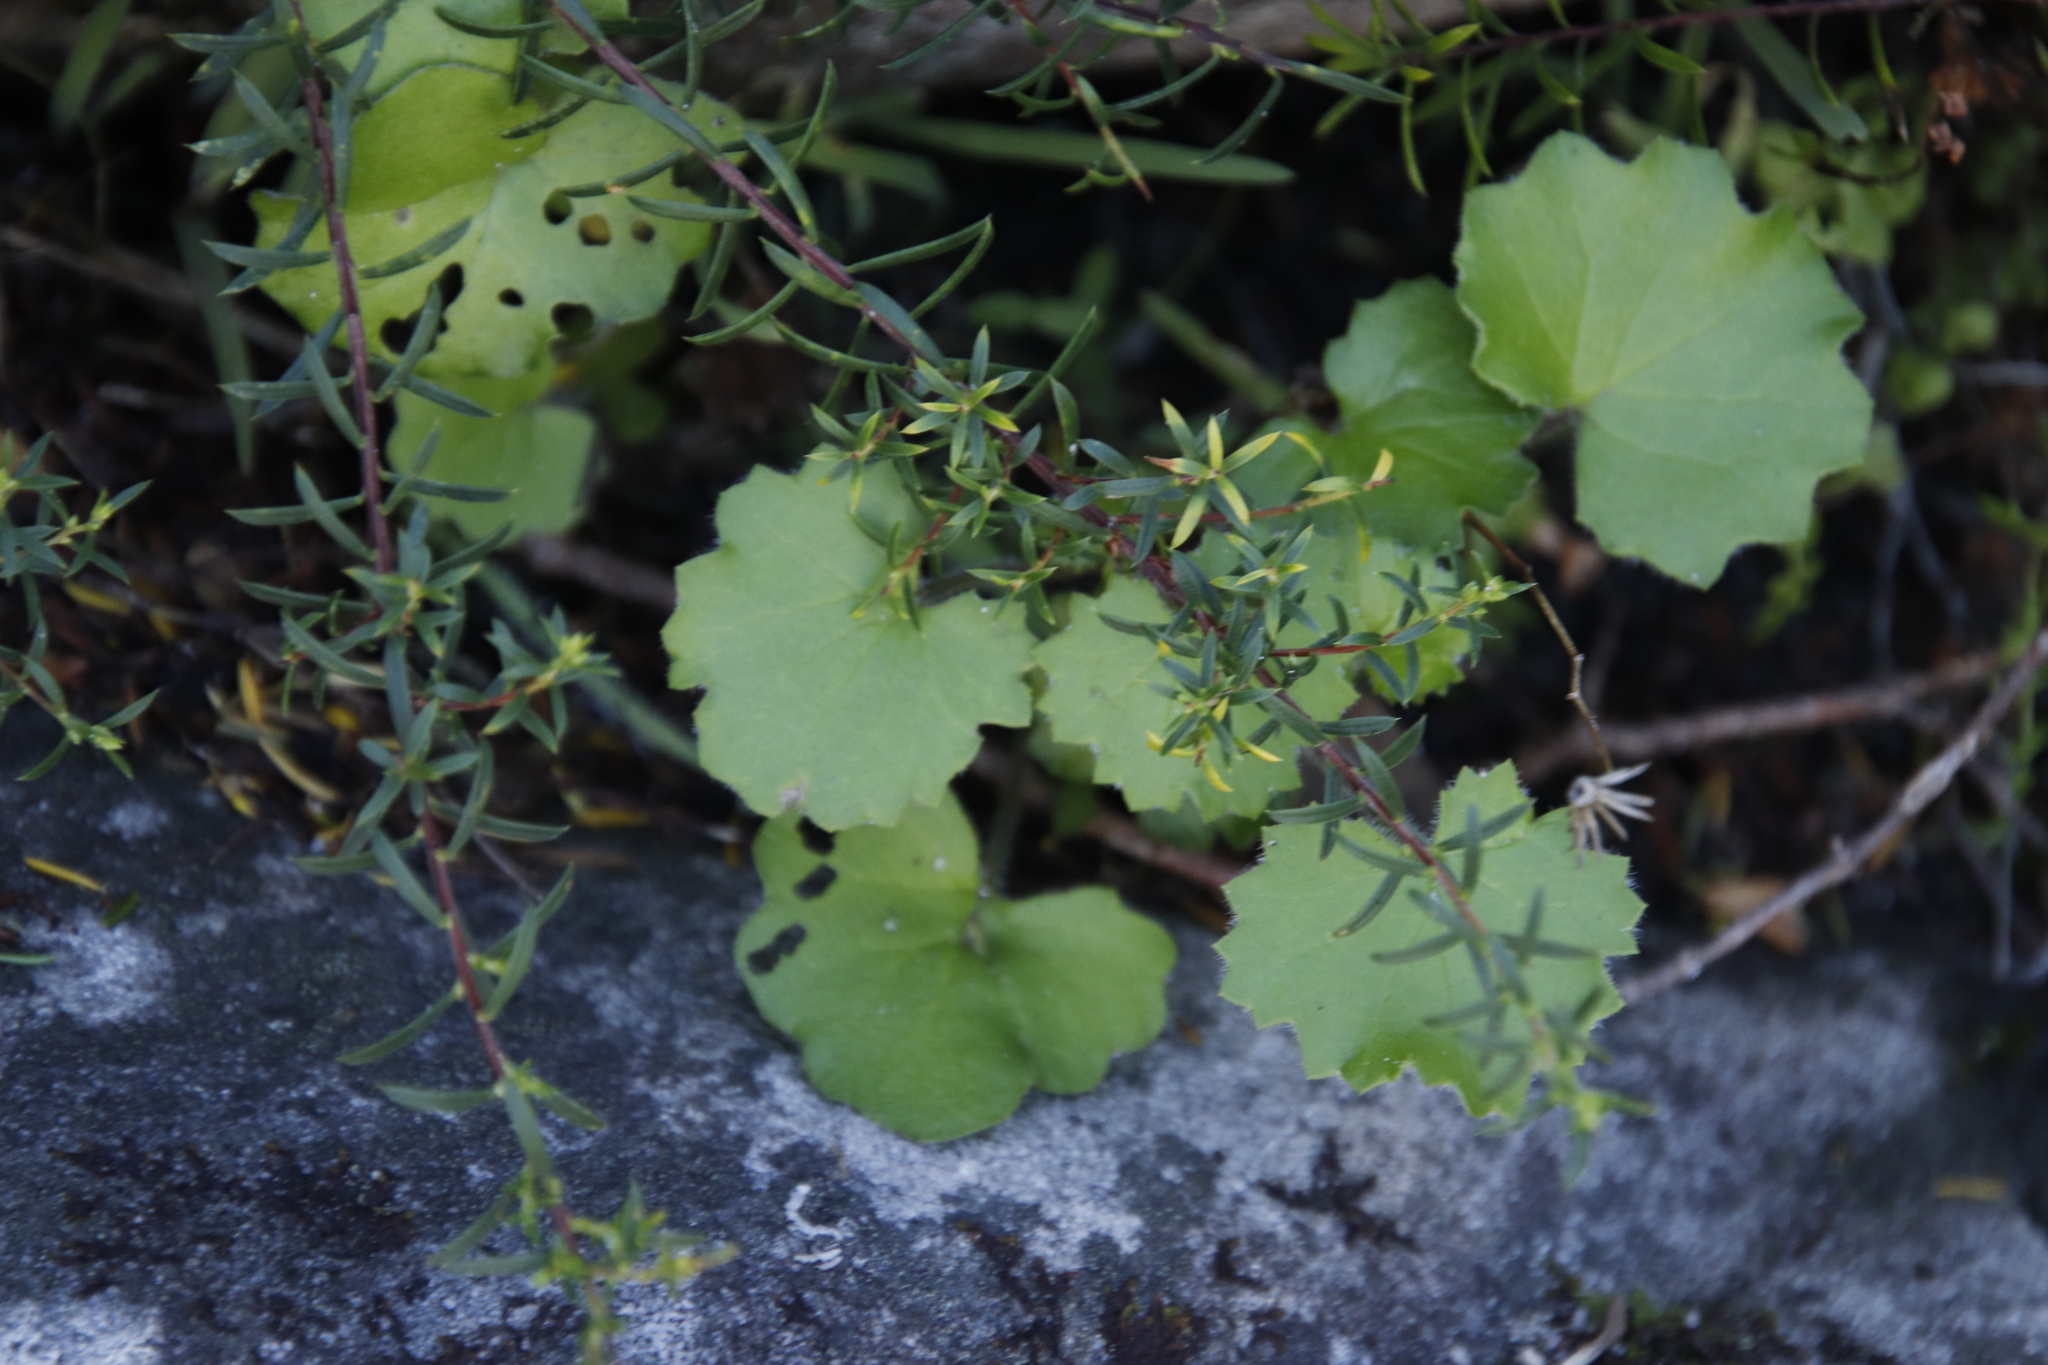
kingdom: Plantae
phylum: Tracheophyta
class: Magnoliopsida
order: Asterales
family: Asteraceae
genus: Cineraria
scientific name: Cineraria geifolia
